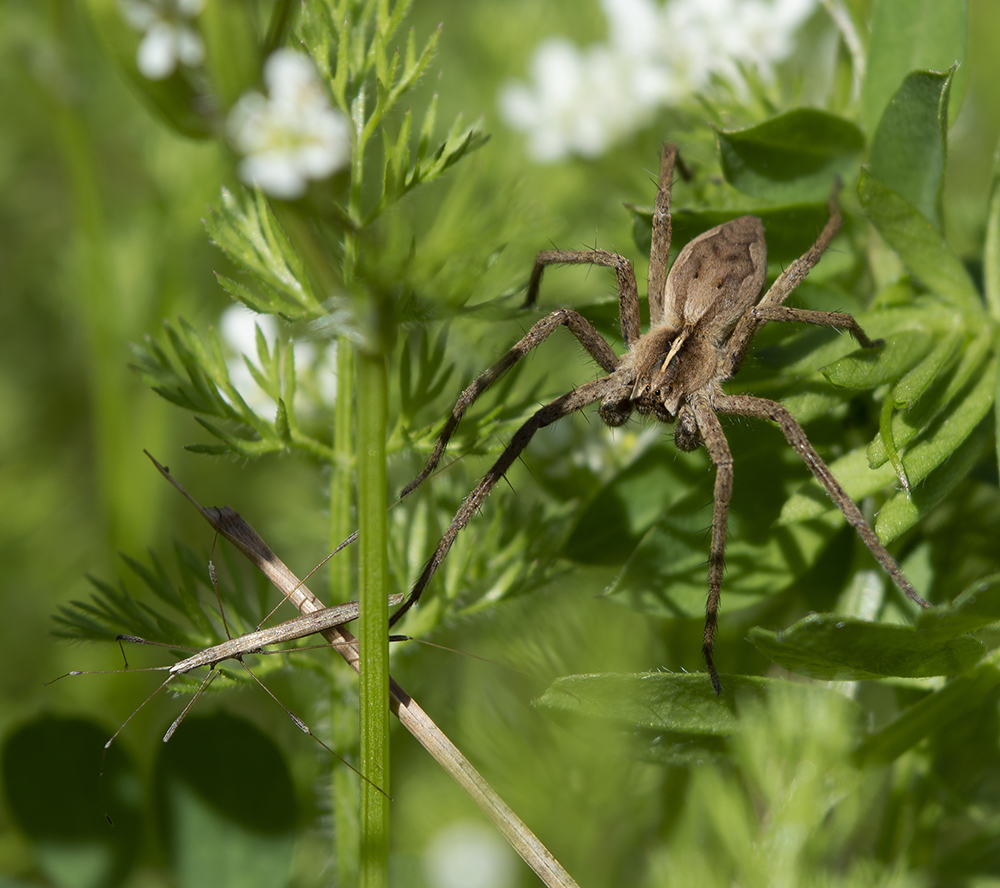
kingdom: Animalia
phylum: Arthropoda
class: Arachnida
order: Araneae
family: Pisauridae
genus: Pisaura
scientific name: Pisaura mirabilis
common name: Tent spider
